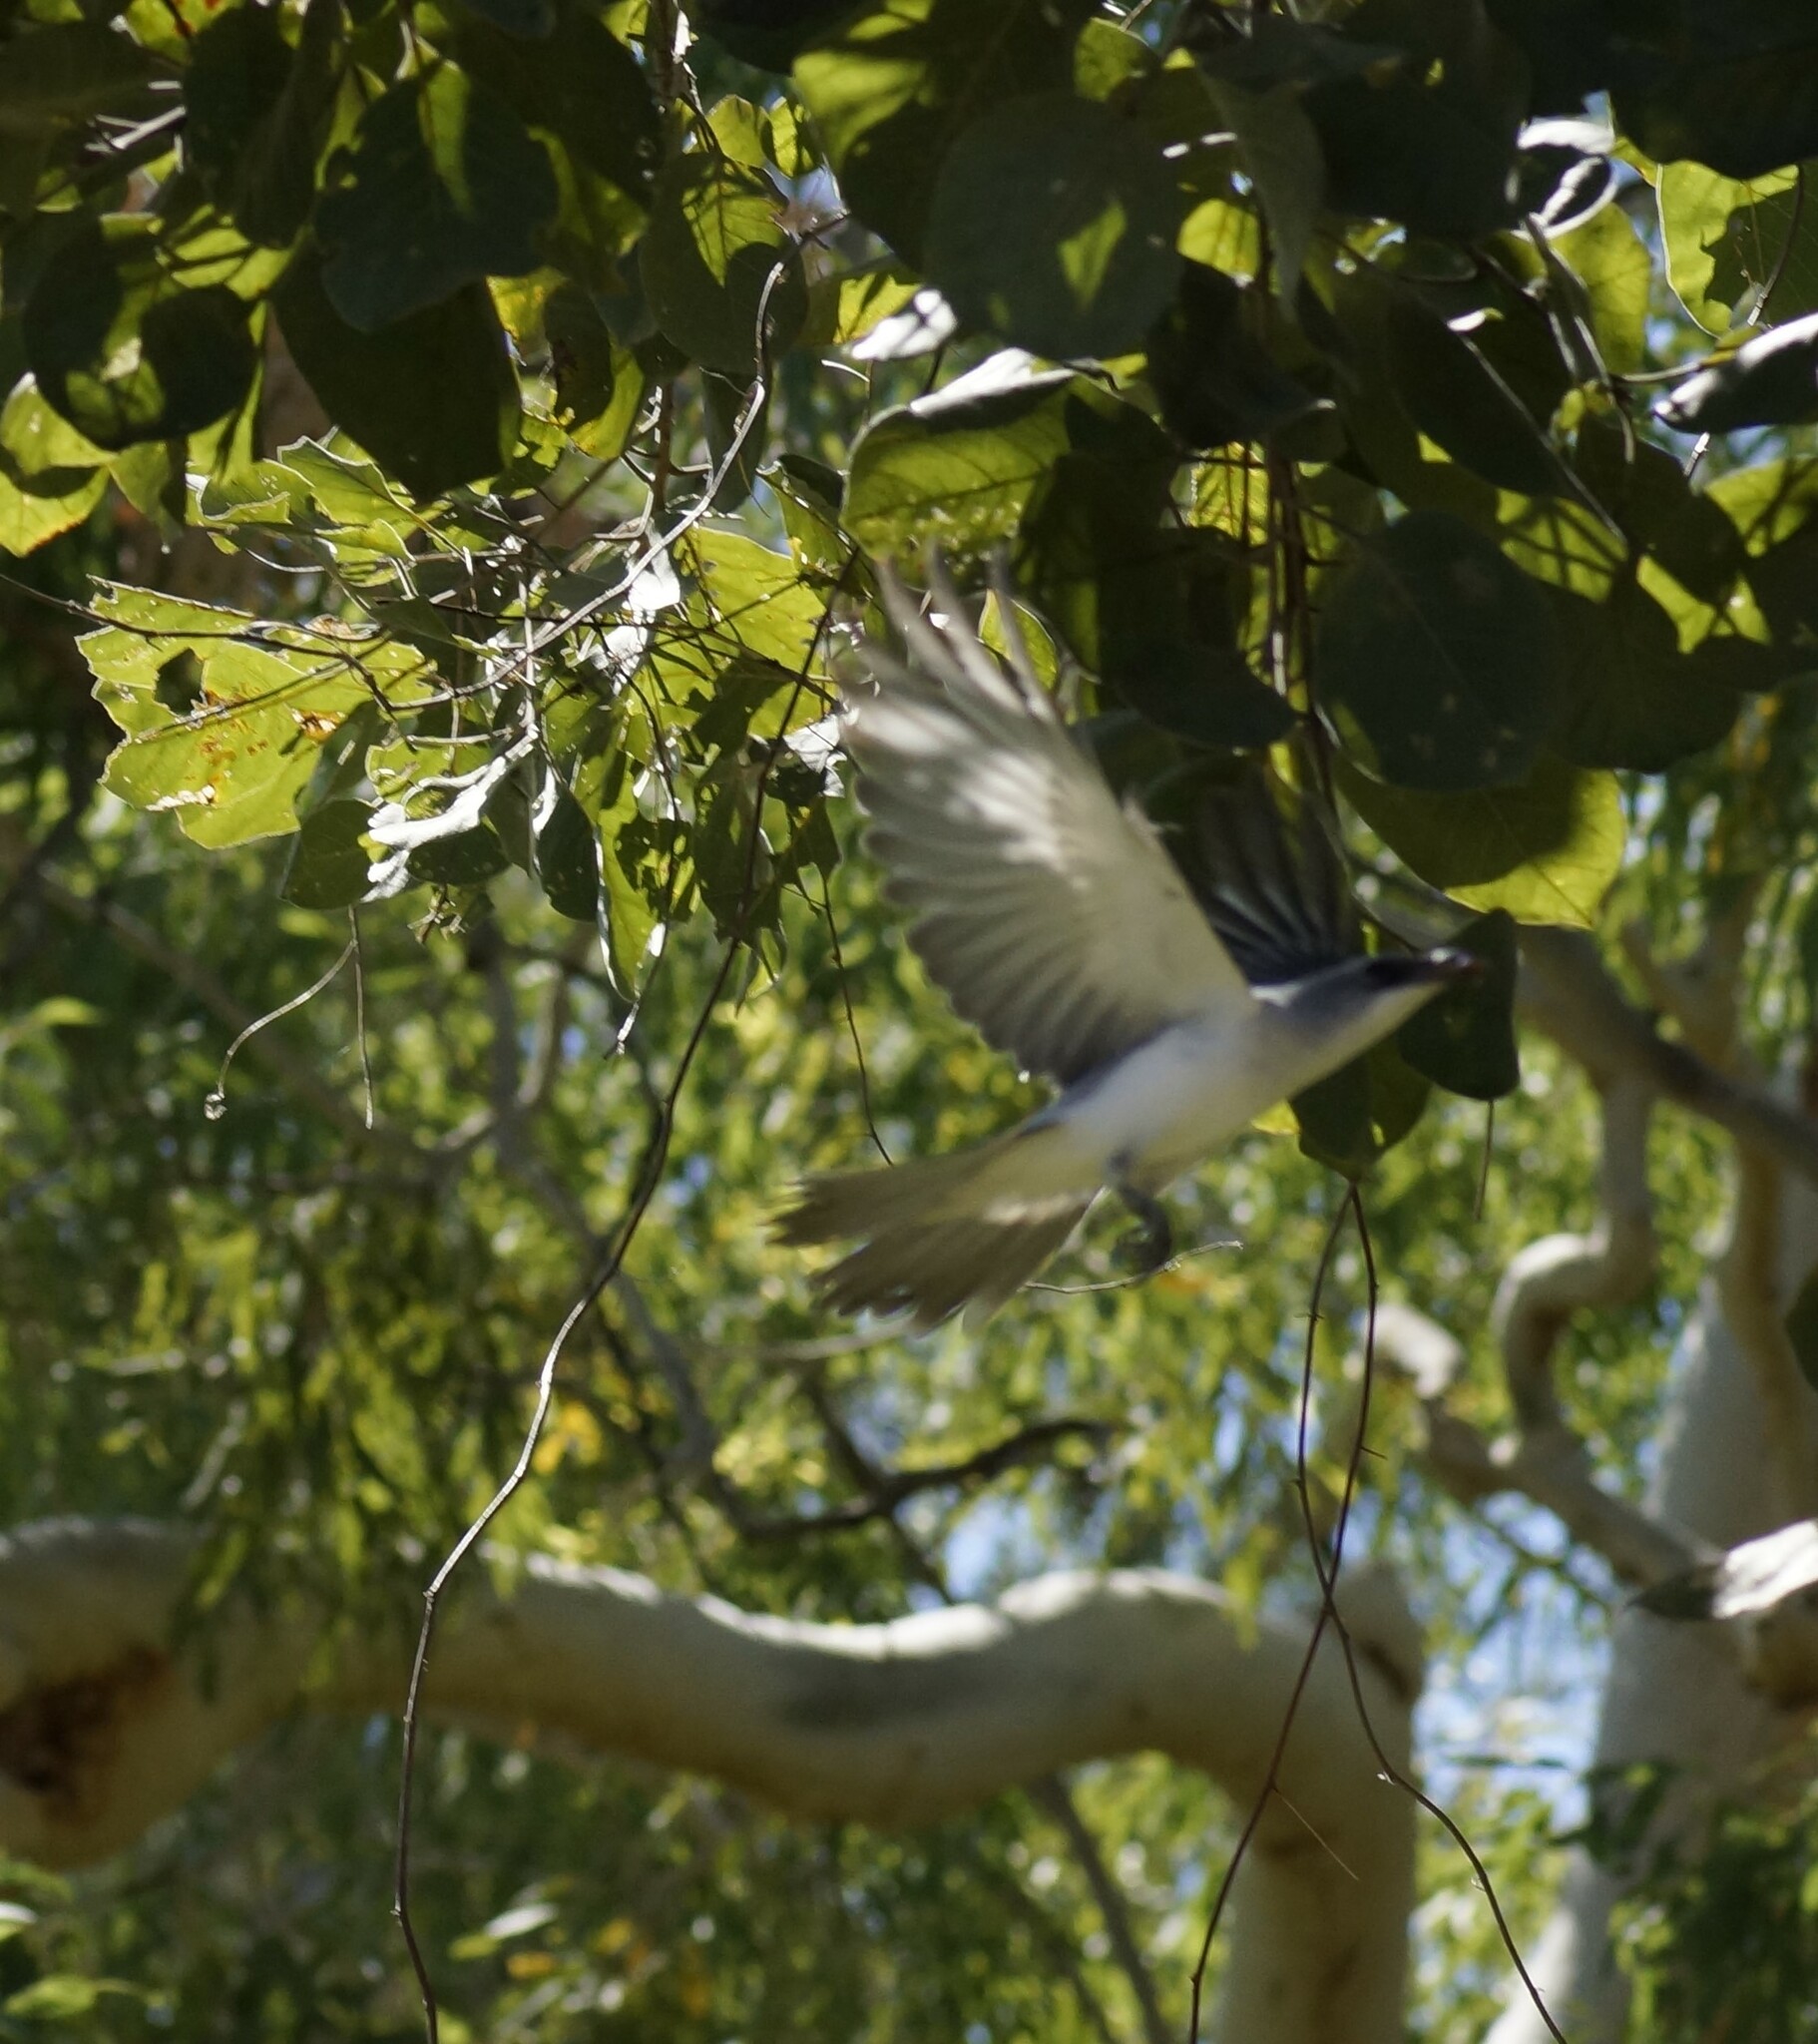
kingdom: Animalia
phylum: Chordata
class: Aves
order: Passeriformes
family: Campephagidae
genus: Coracina
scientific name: Coracina papuensis
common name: White-bellied cuckooshrike
